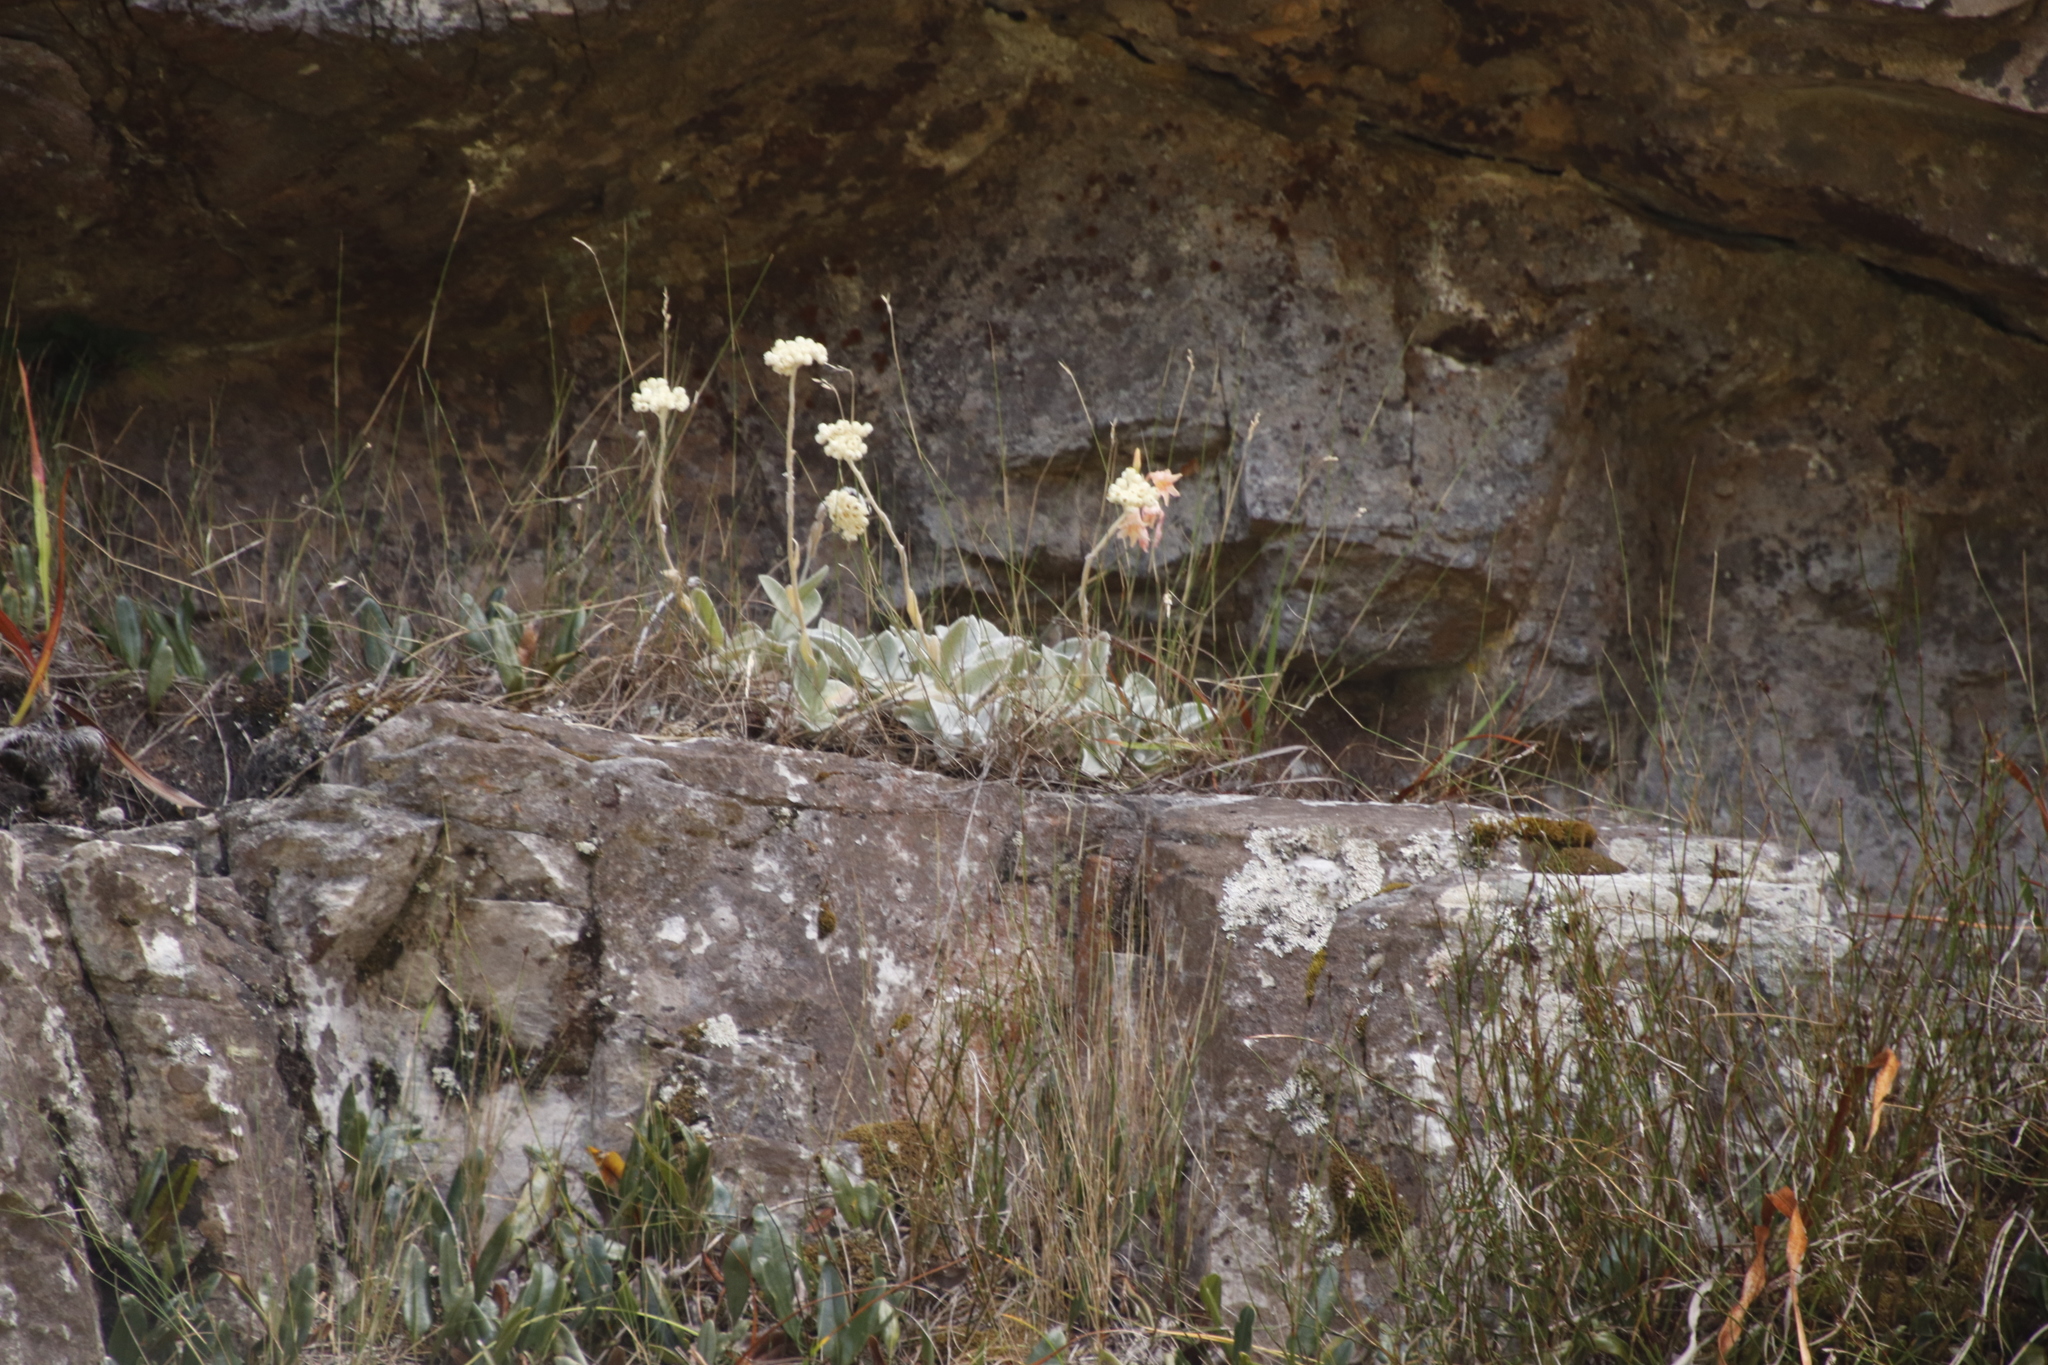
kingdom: Plantae
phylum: Tracheophyta
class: Magnoliopsida
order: Asterales
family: Asteraceae
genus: Helichrysum
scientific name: Helichrysum grandiflorum
